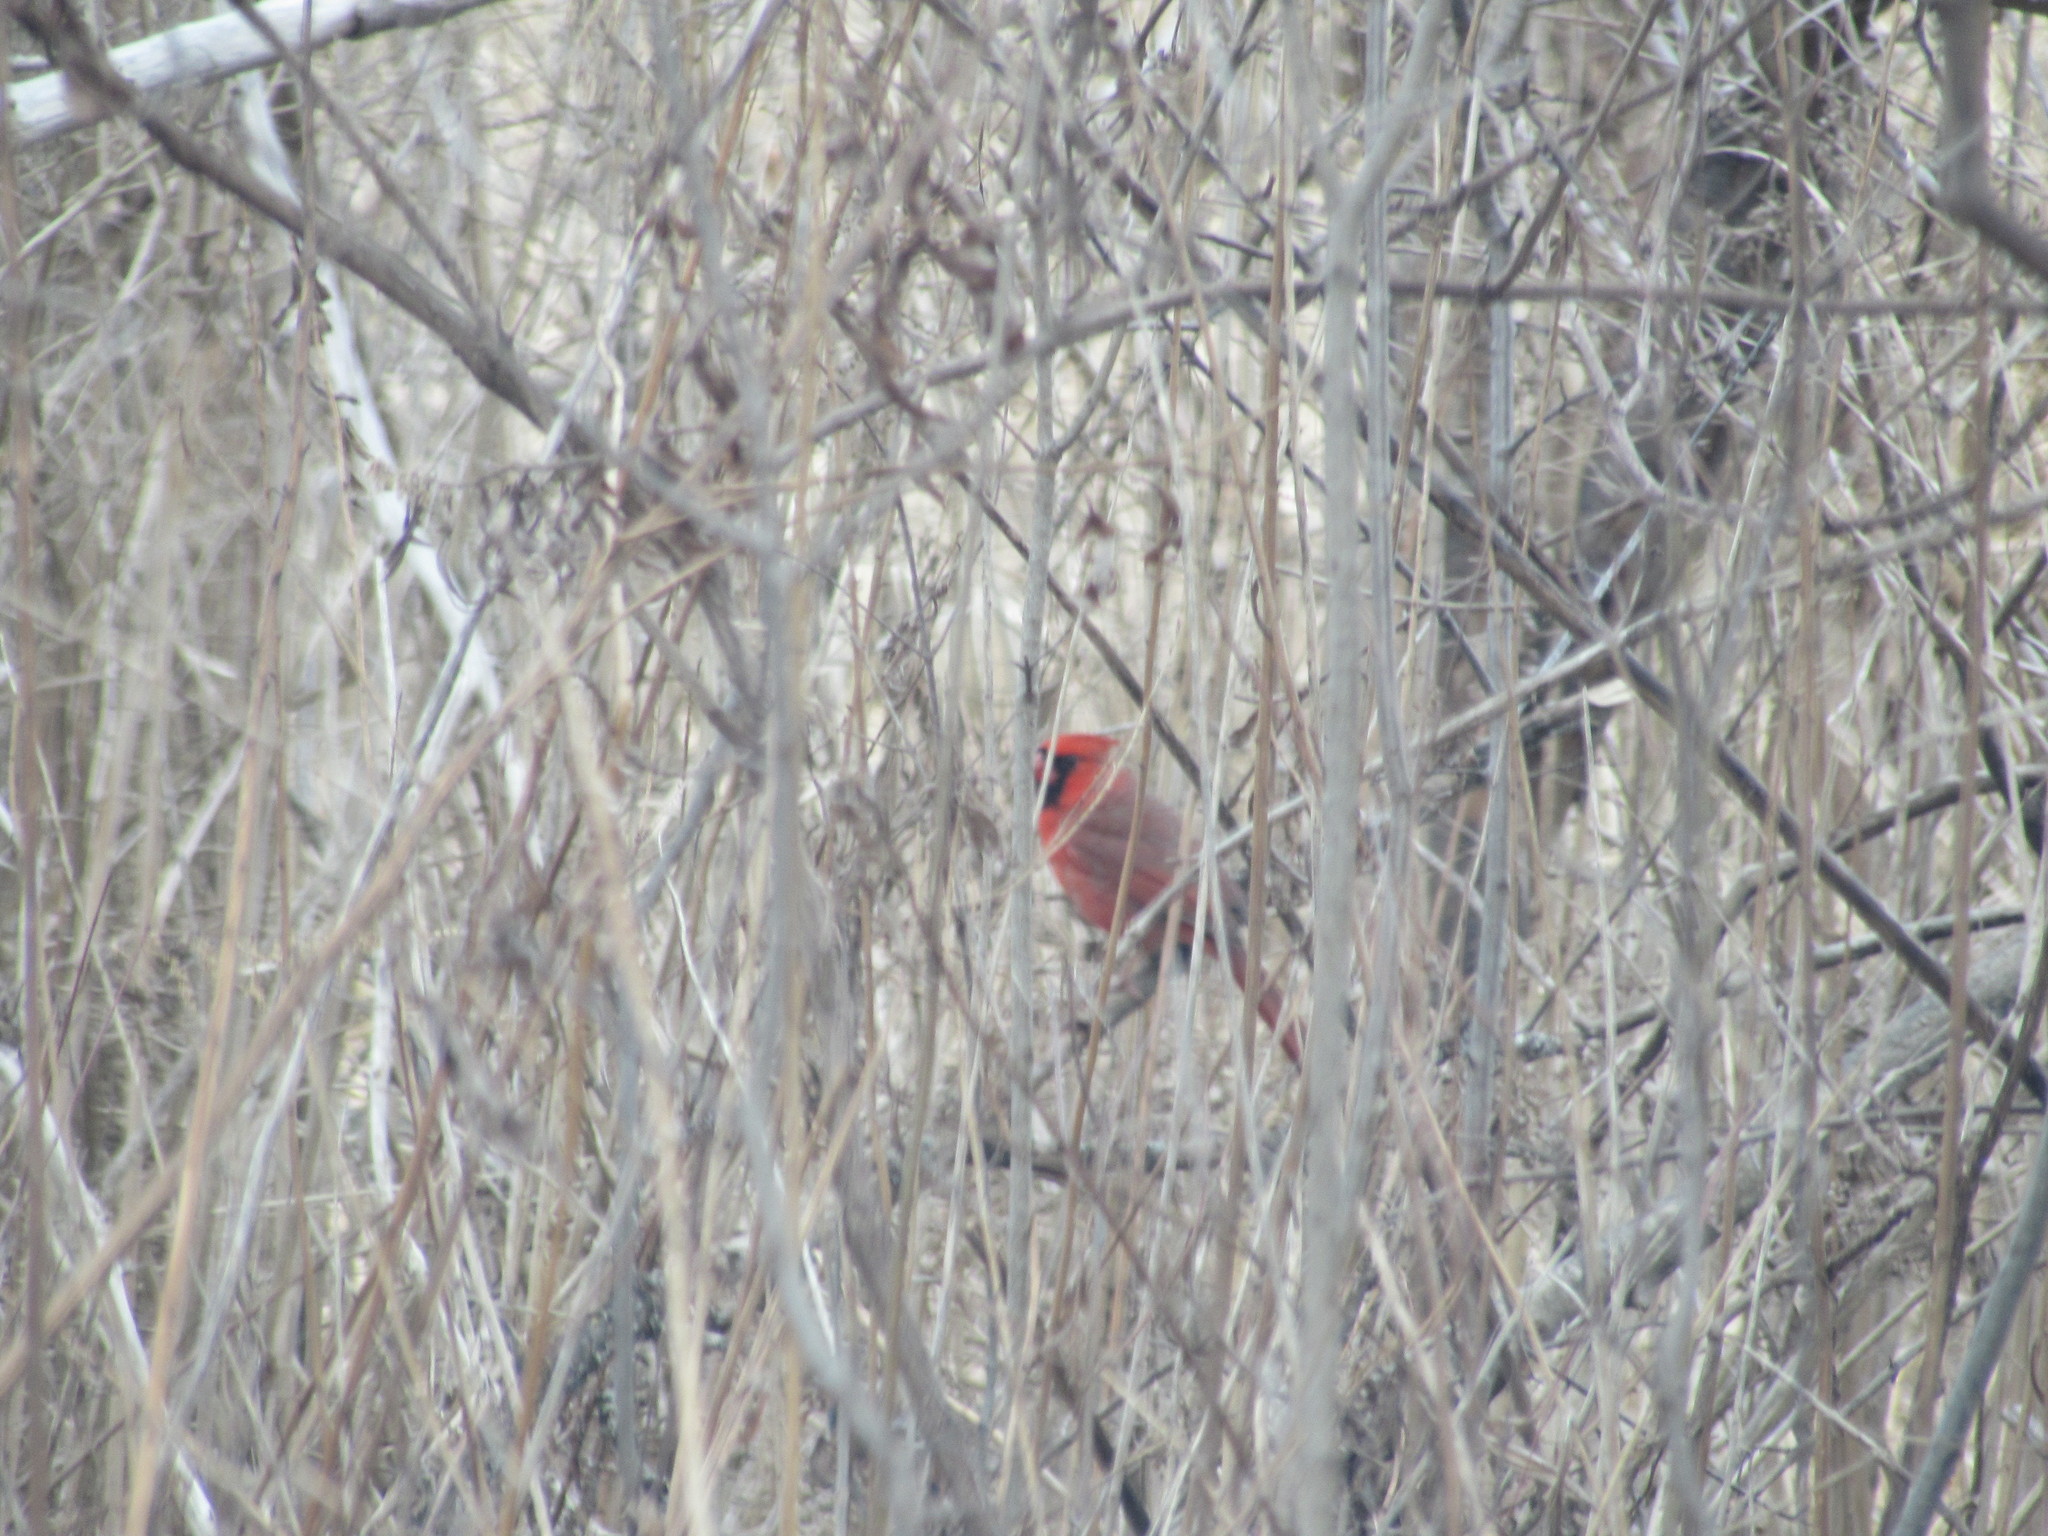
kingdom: Animalia
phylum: Chordata
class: Aves
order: Passeriformes
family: Cardinalidae
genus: Cardinalis
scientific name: Cardinalis cardinalis
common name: Northern cardinal
